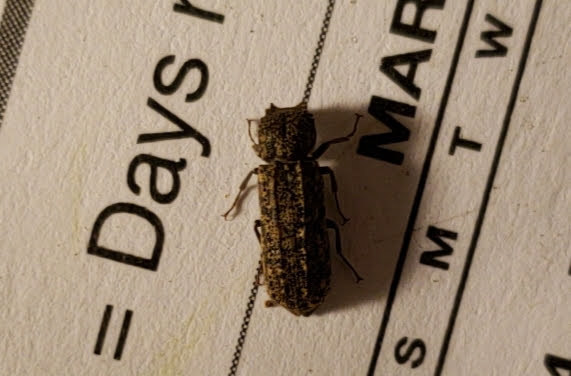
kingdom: Animalia
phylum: Arthropoda
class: Insecta
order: Coleoptera
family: Bostrichidae
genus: Lichenophanes
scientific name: Lichenophanes bicornis
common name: Two-horned powder-post beetle
